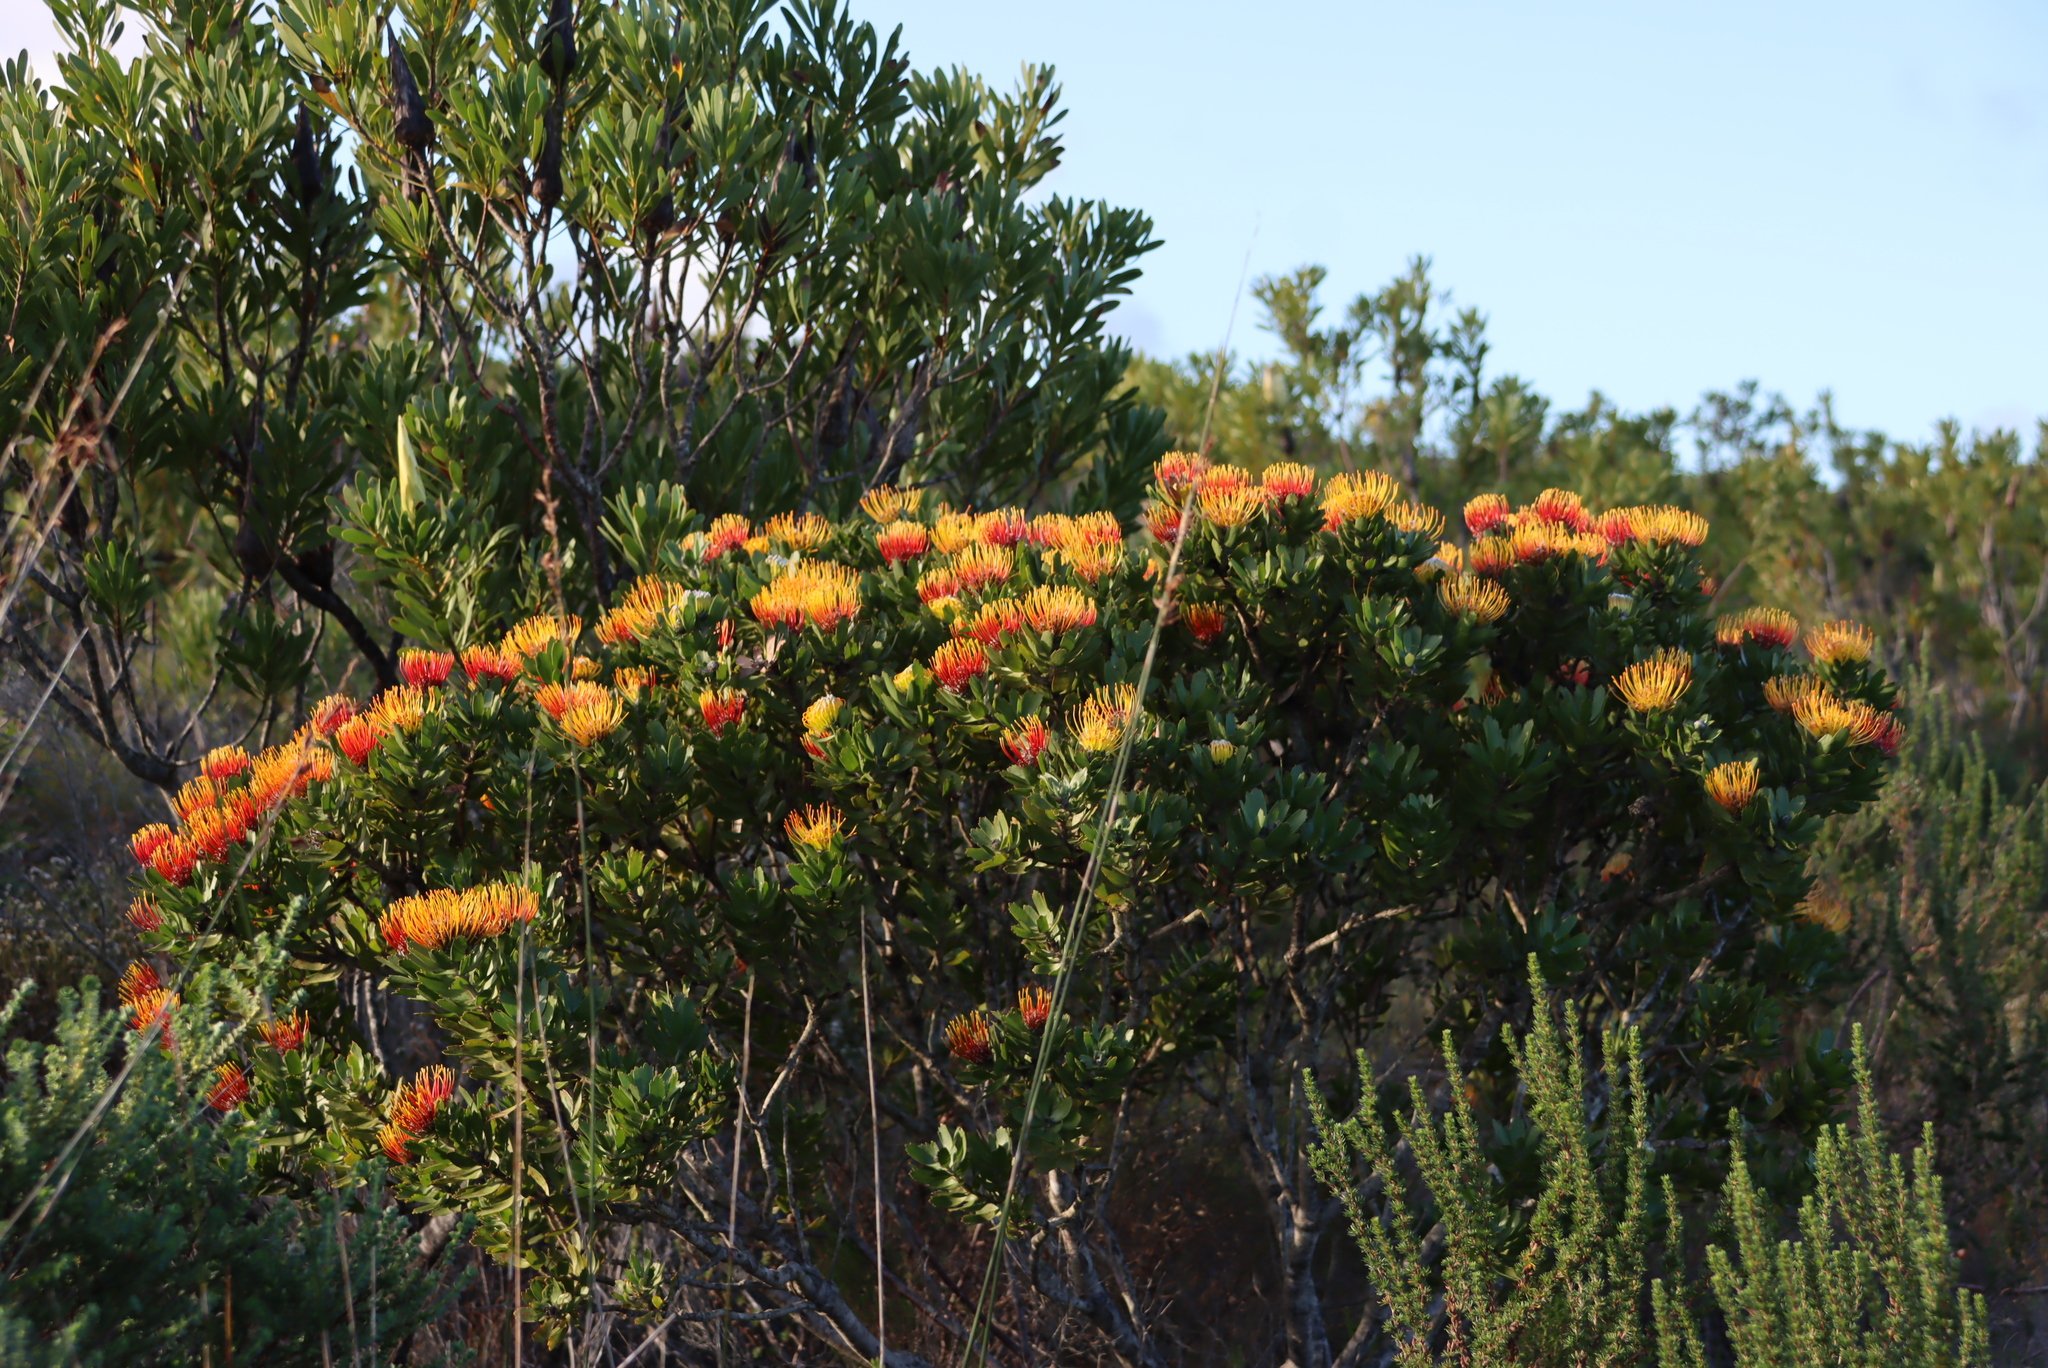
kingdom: Plantae
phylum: Tracheophyta
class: Magnoliopsida
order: Proteales
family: Proteaceae
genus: Leucospermum
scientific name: Leucospermum praecox
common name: Mossel bay pincushion
